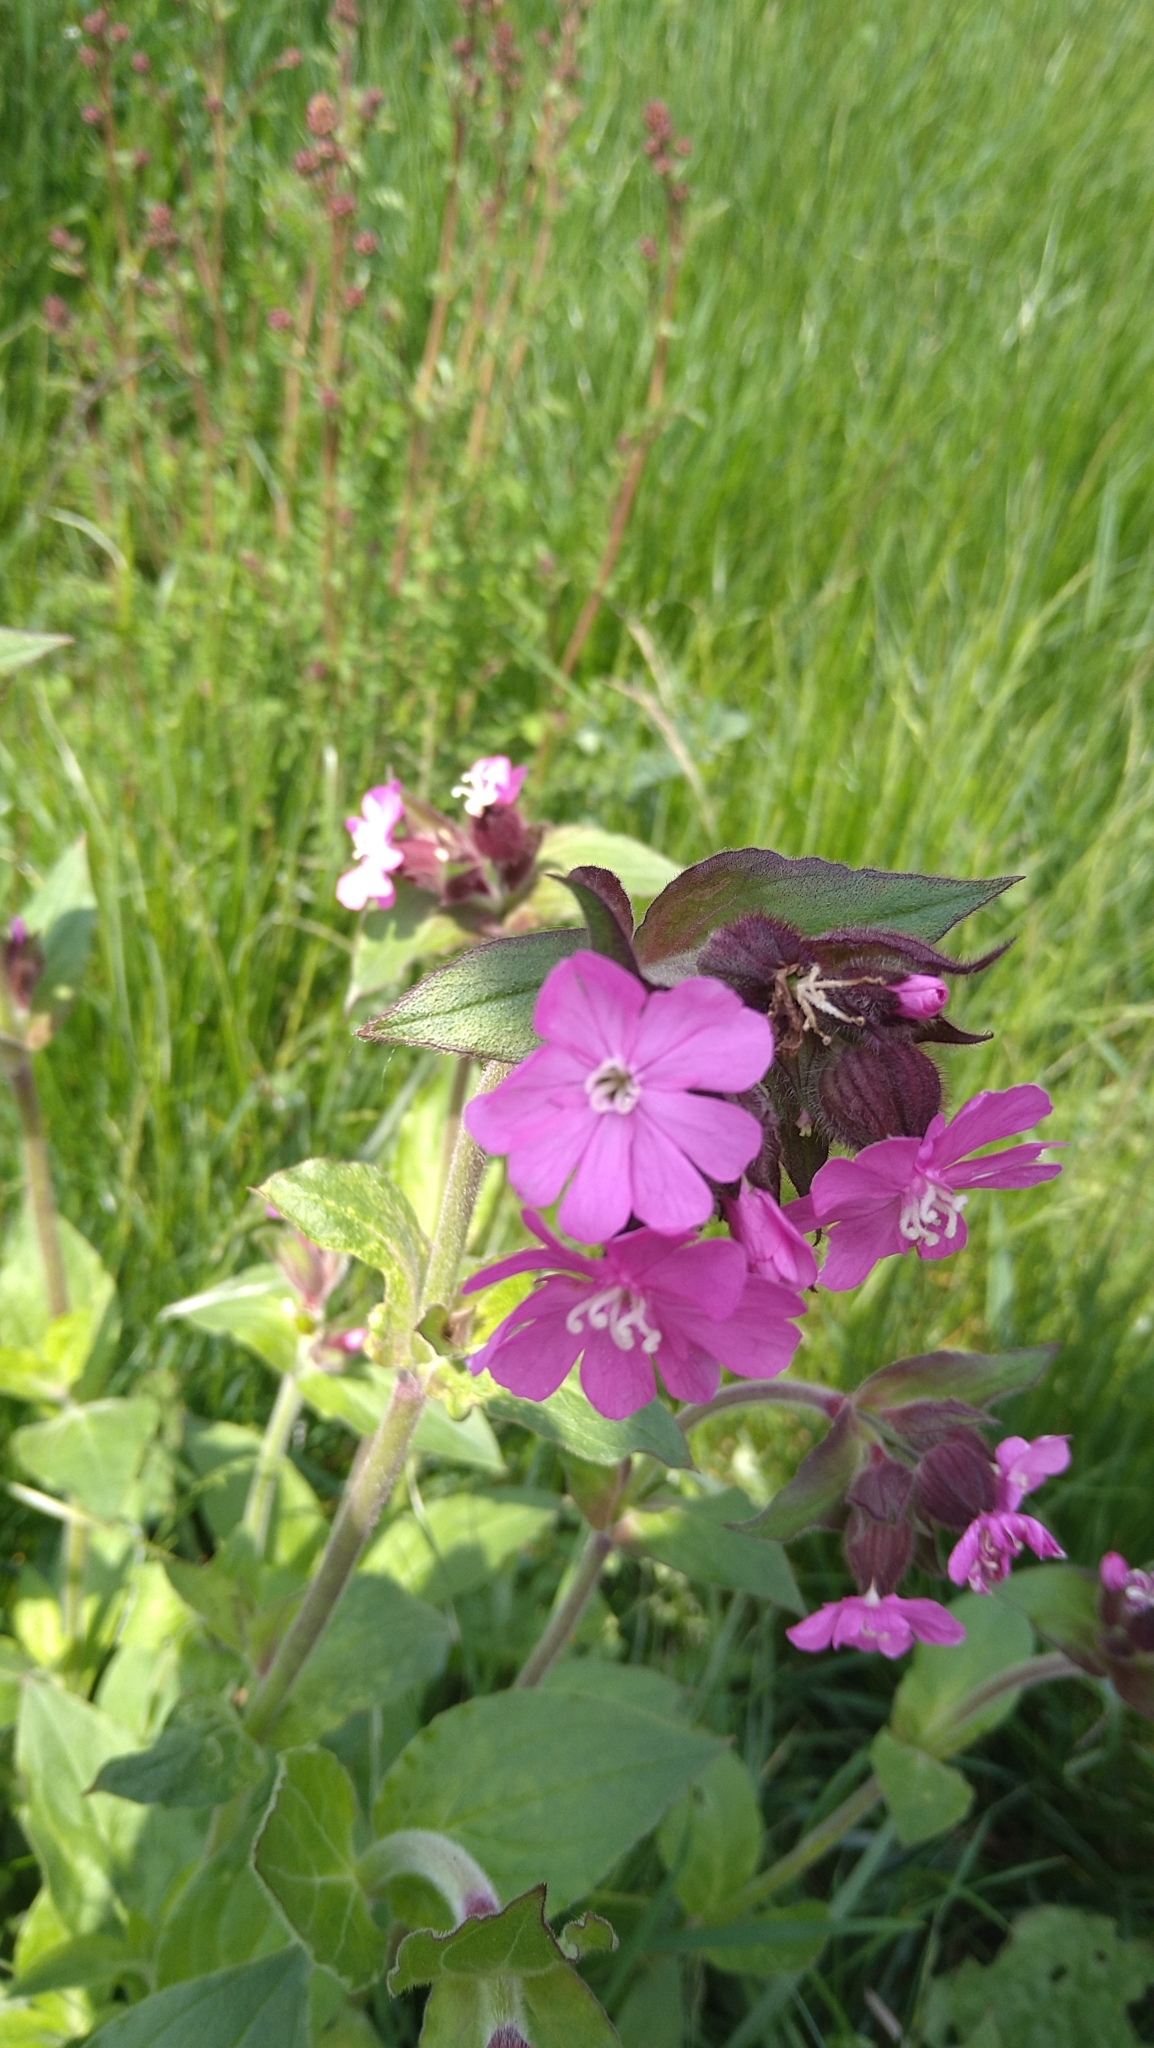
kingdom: Plantae
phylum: Tracheophyta
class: Magnoliopsida
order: Caryophyllales
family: Caryophyllaceae
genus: Silene
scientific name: Silene dioica
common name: Red campion
